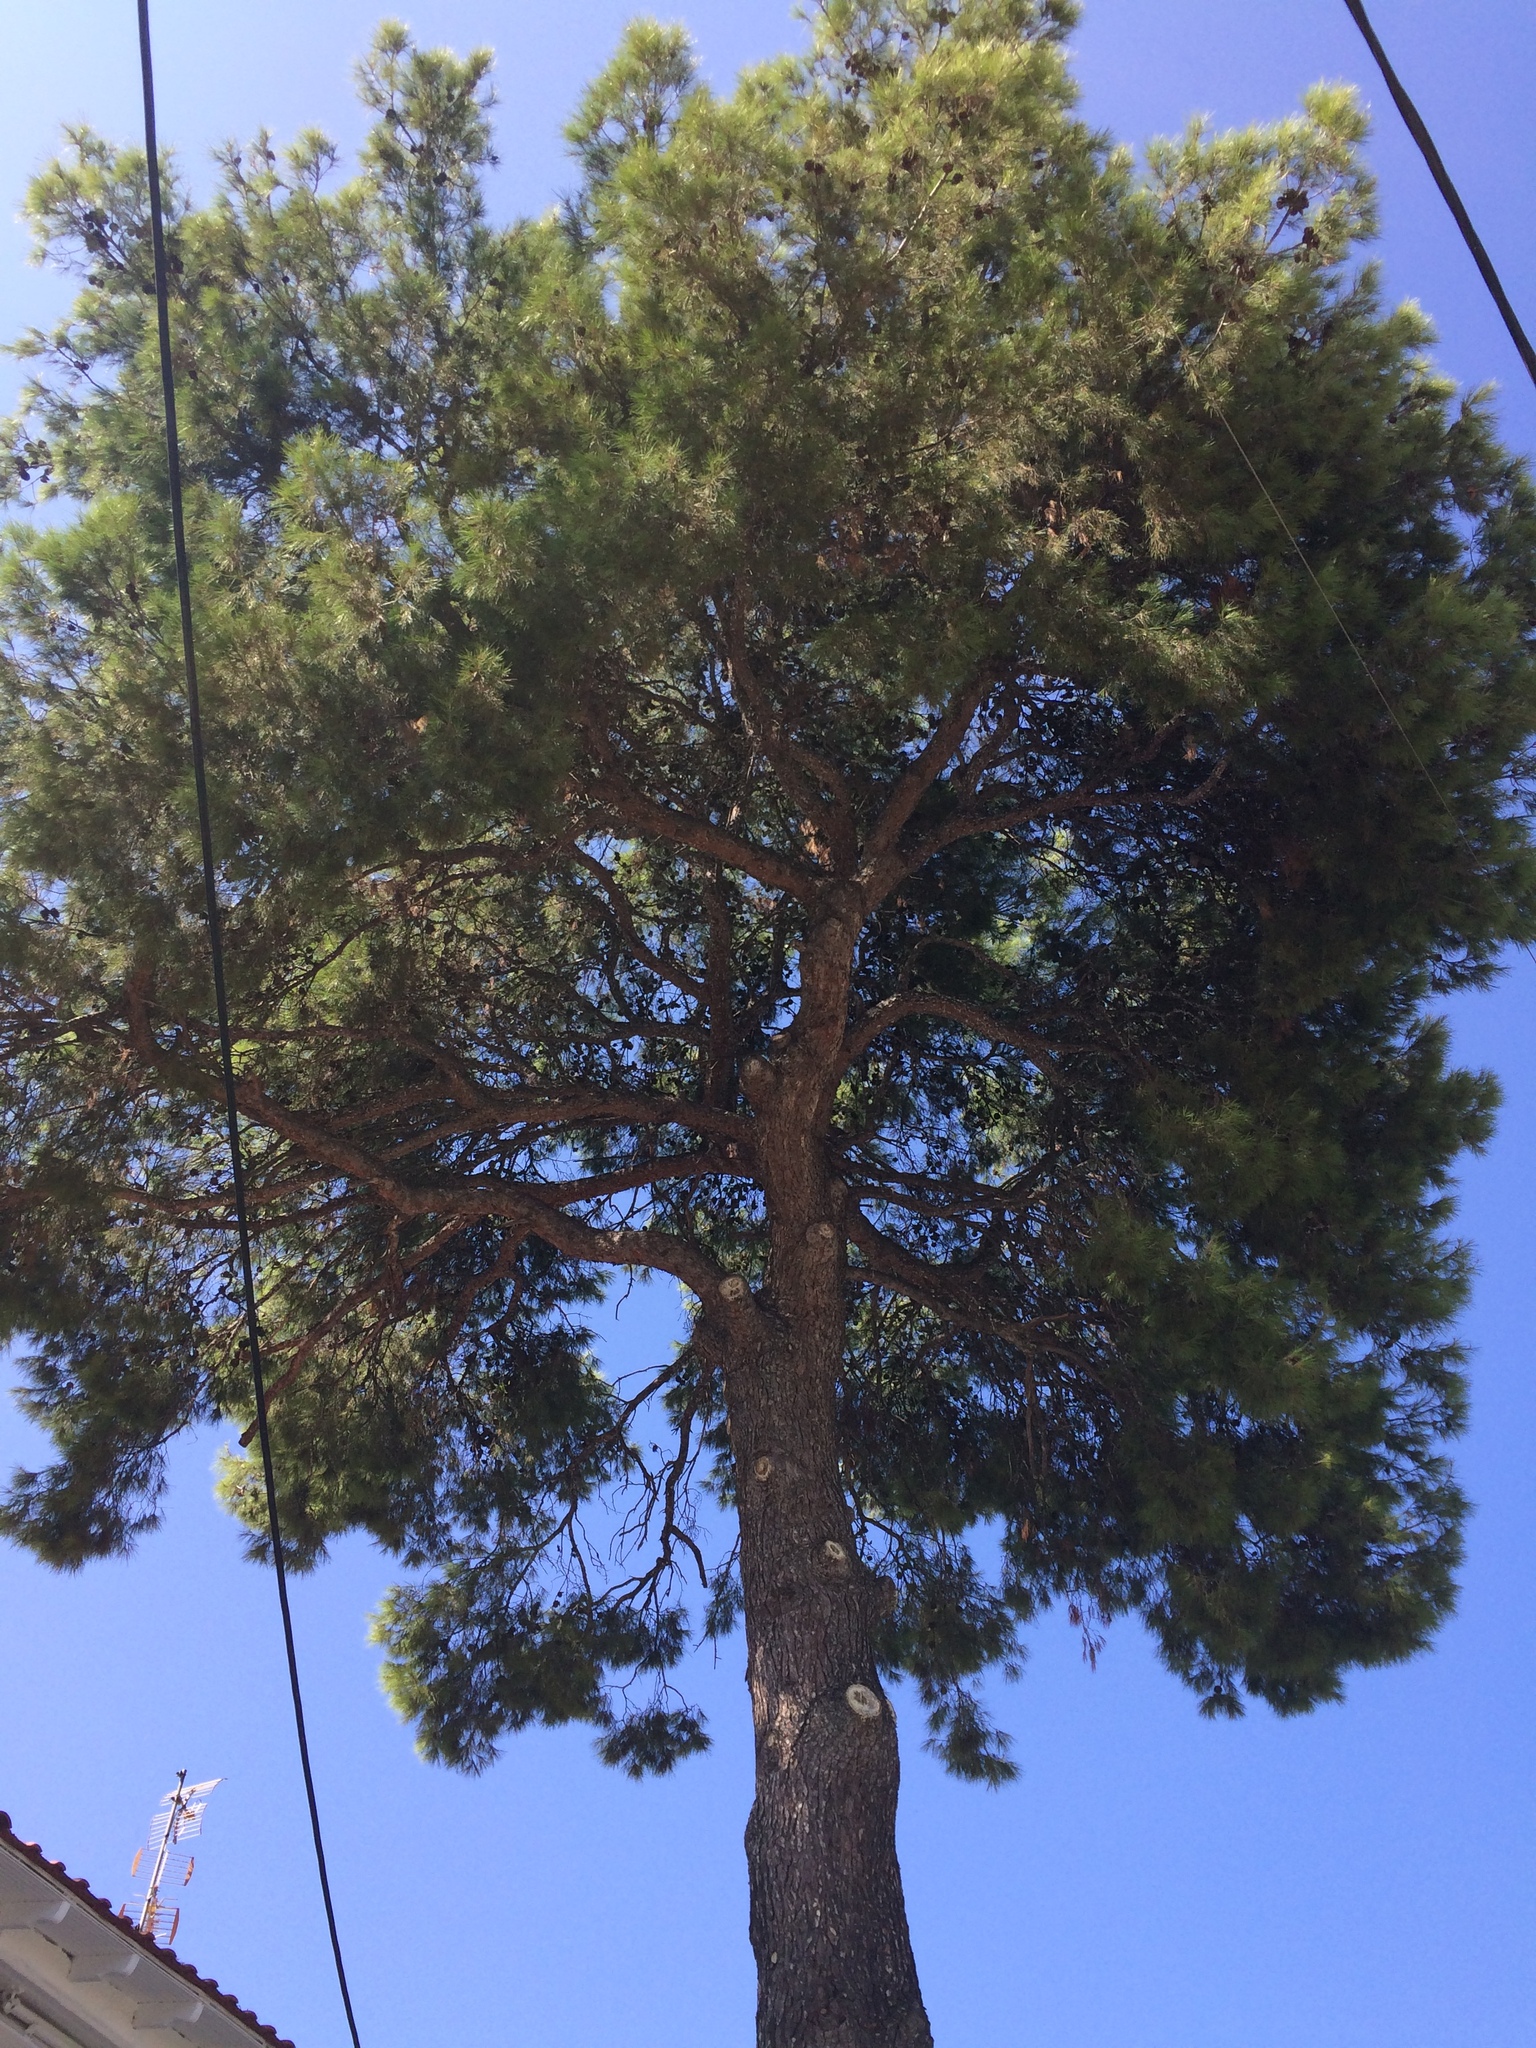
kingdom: Plantae
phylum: Tracheophyta
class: Pinopsida
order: Pinales
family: Pinaceae
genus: Pinus
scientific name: Pinus halepensis
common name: Aleppo pine
